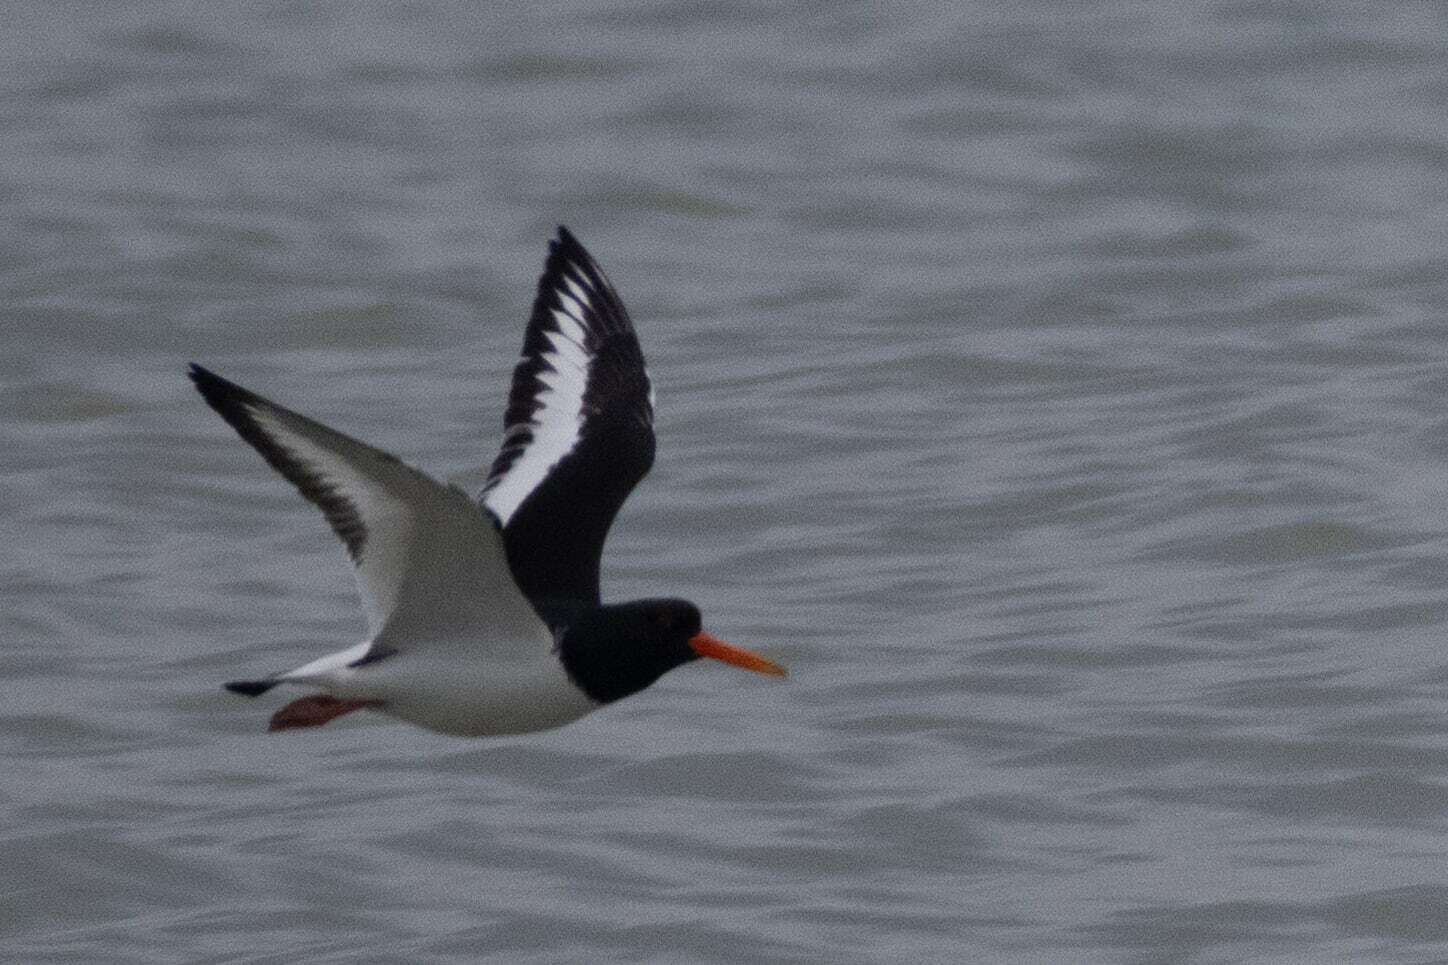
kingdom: Animalia
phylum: Chordata
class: Aves
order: Charadriiformes
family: Haematopodidae
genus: Haematopus
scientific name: Haematopus ostralegus
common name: Eurasian oystercatcher
